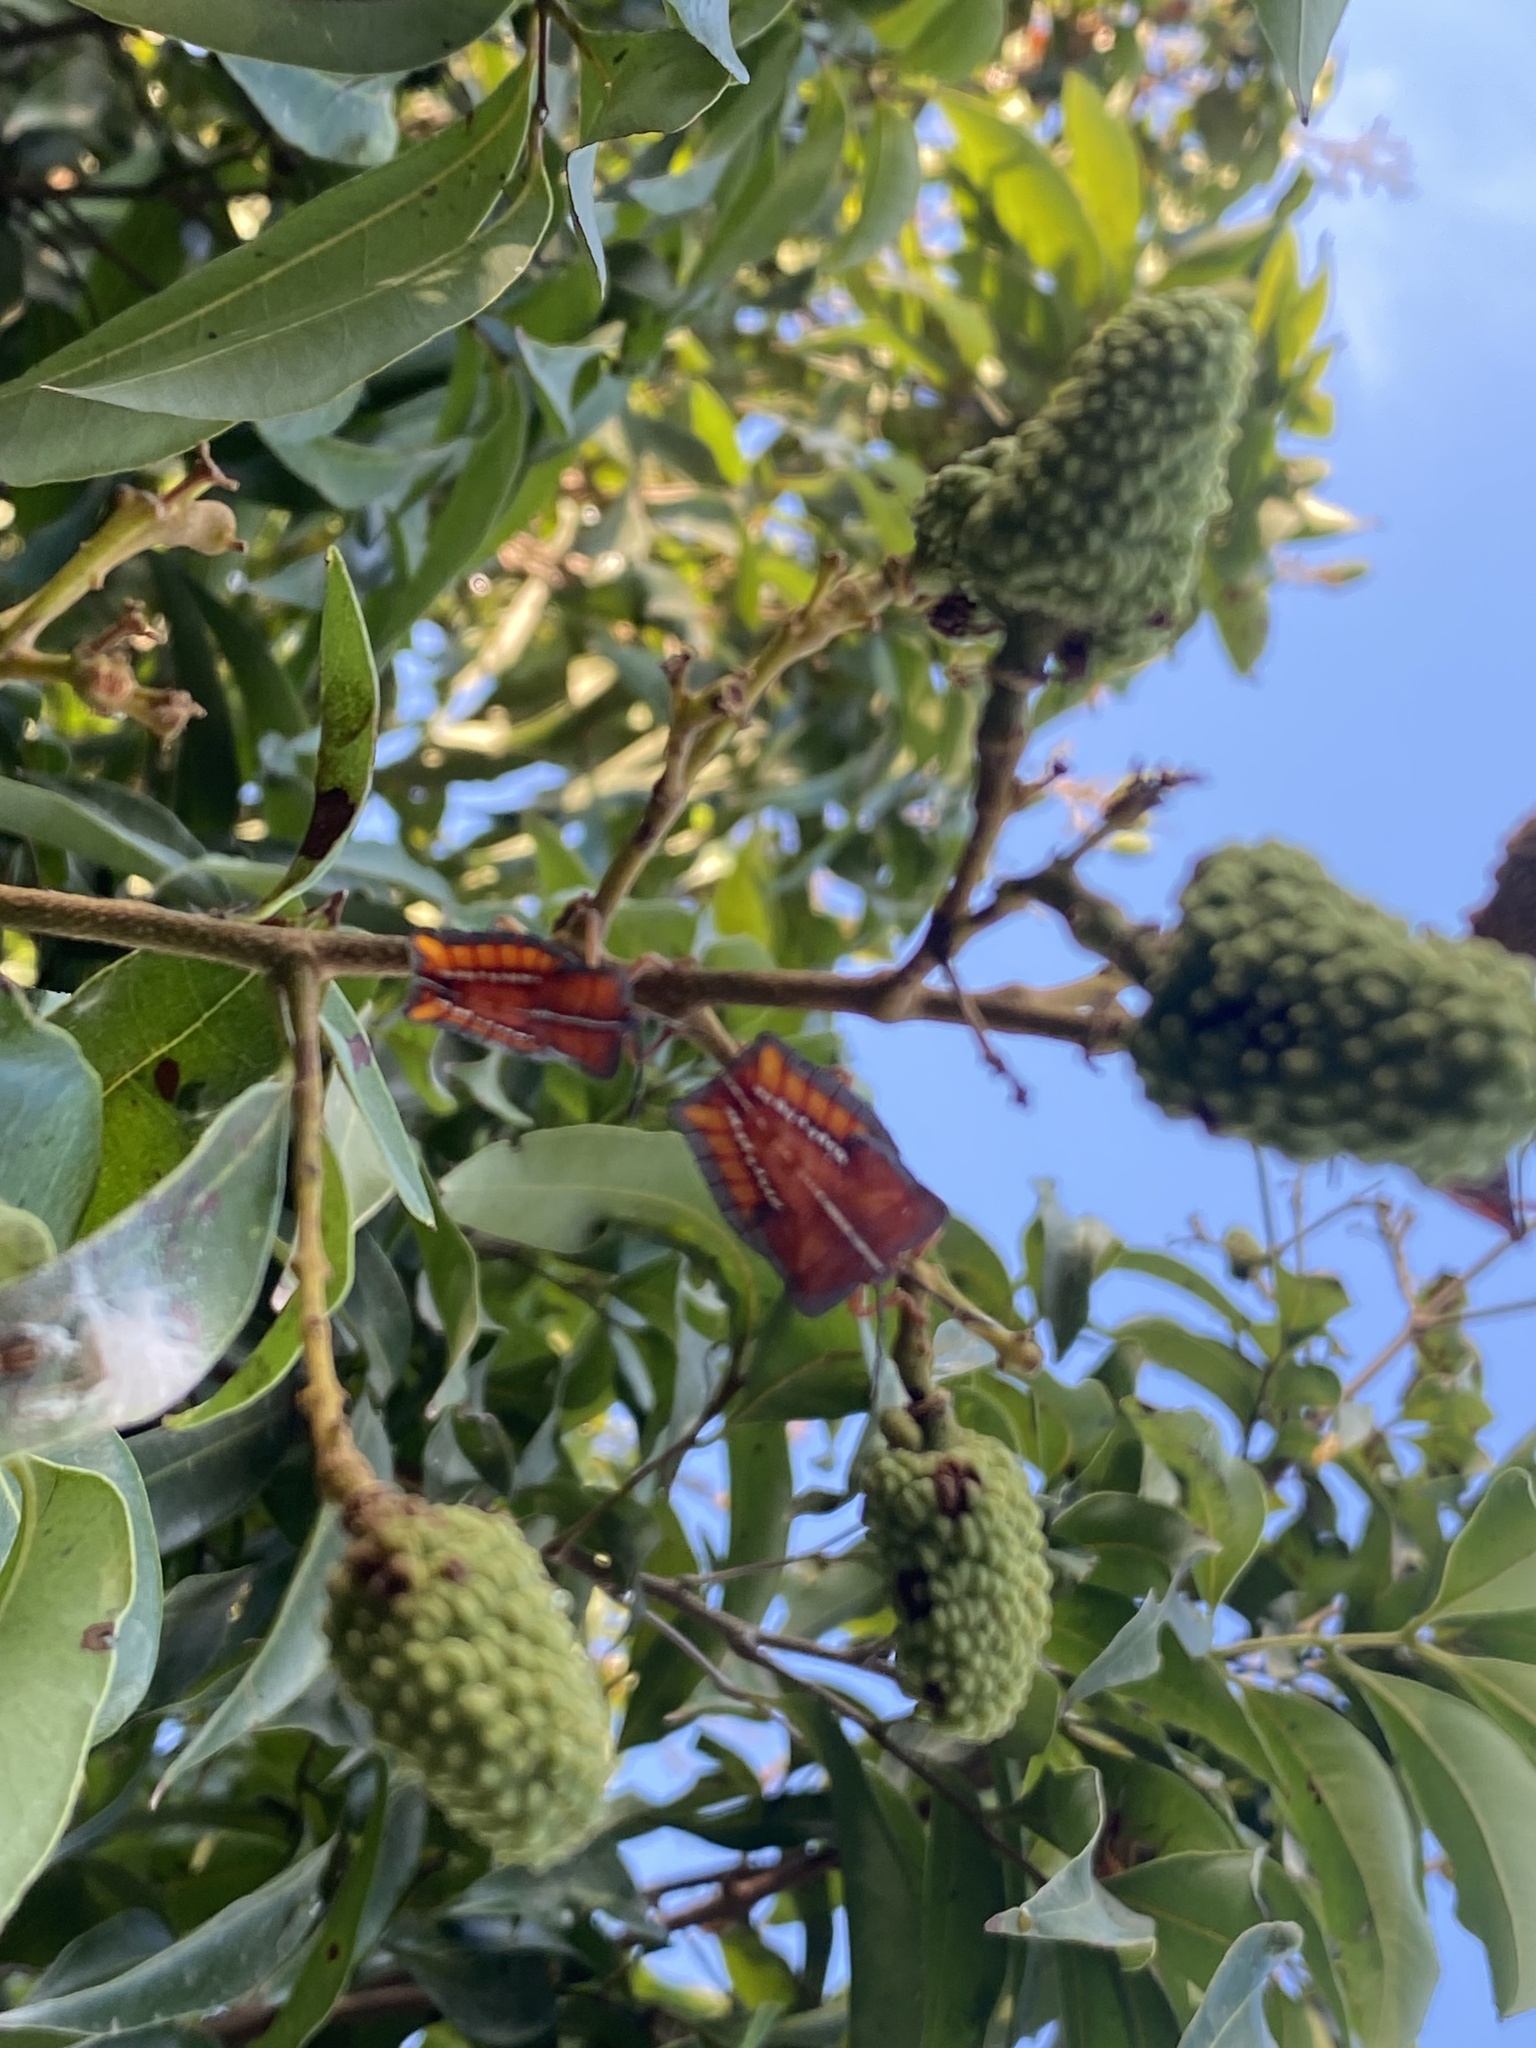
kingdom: Animalia
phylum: Arthropoda
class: Insecta
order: Hemiptera
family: Tessaratomidae
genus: Tessaratoma
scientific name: Tessaratoma papillosa
